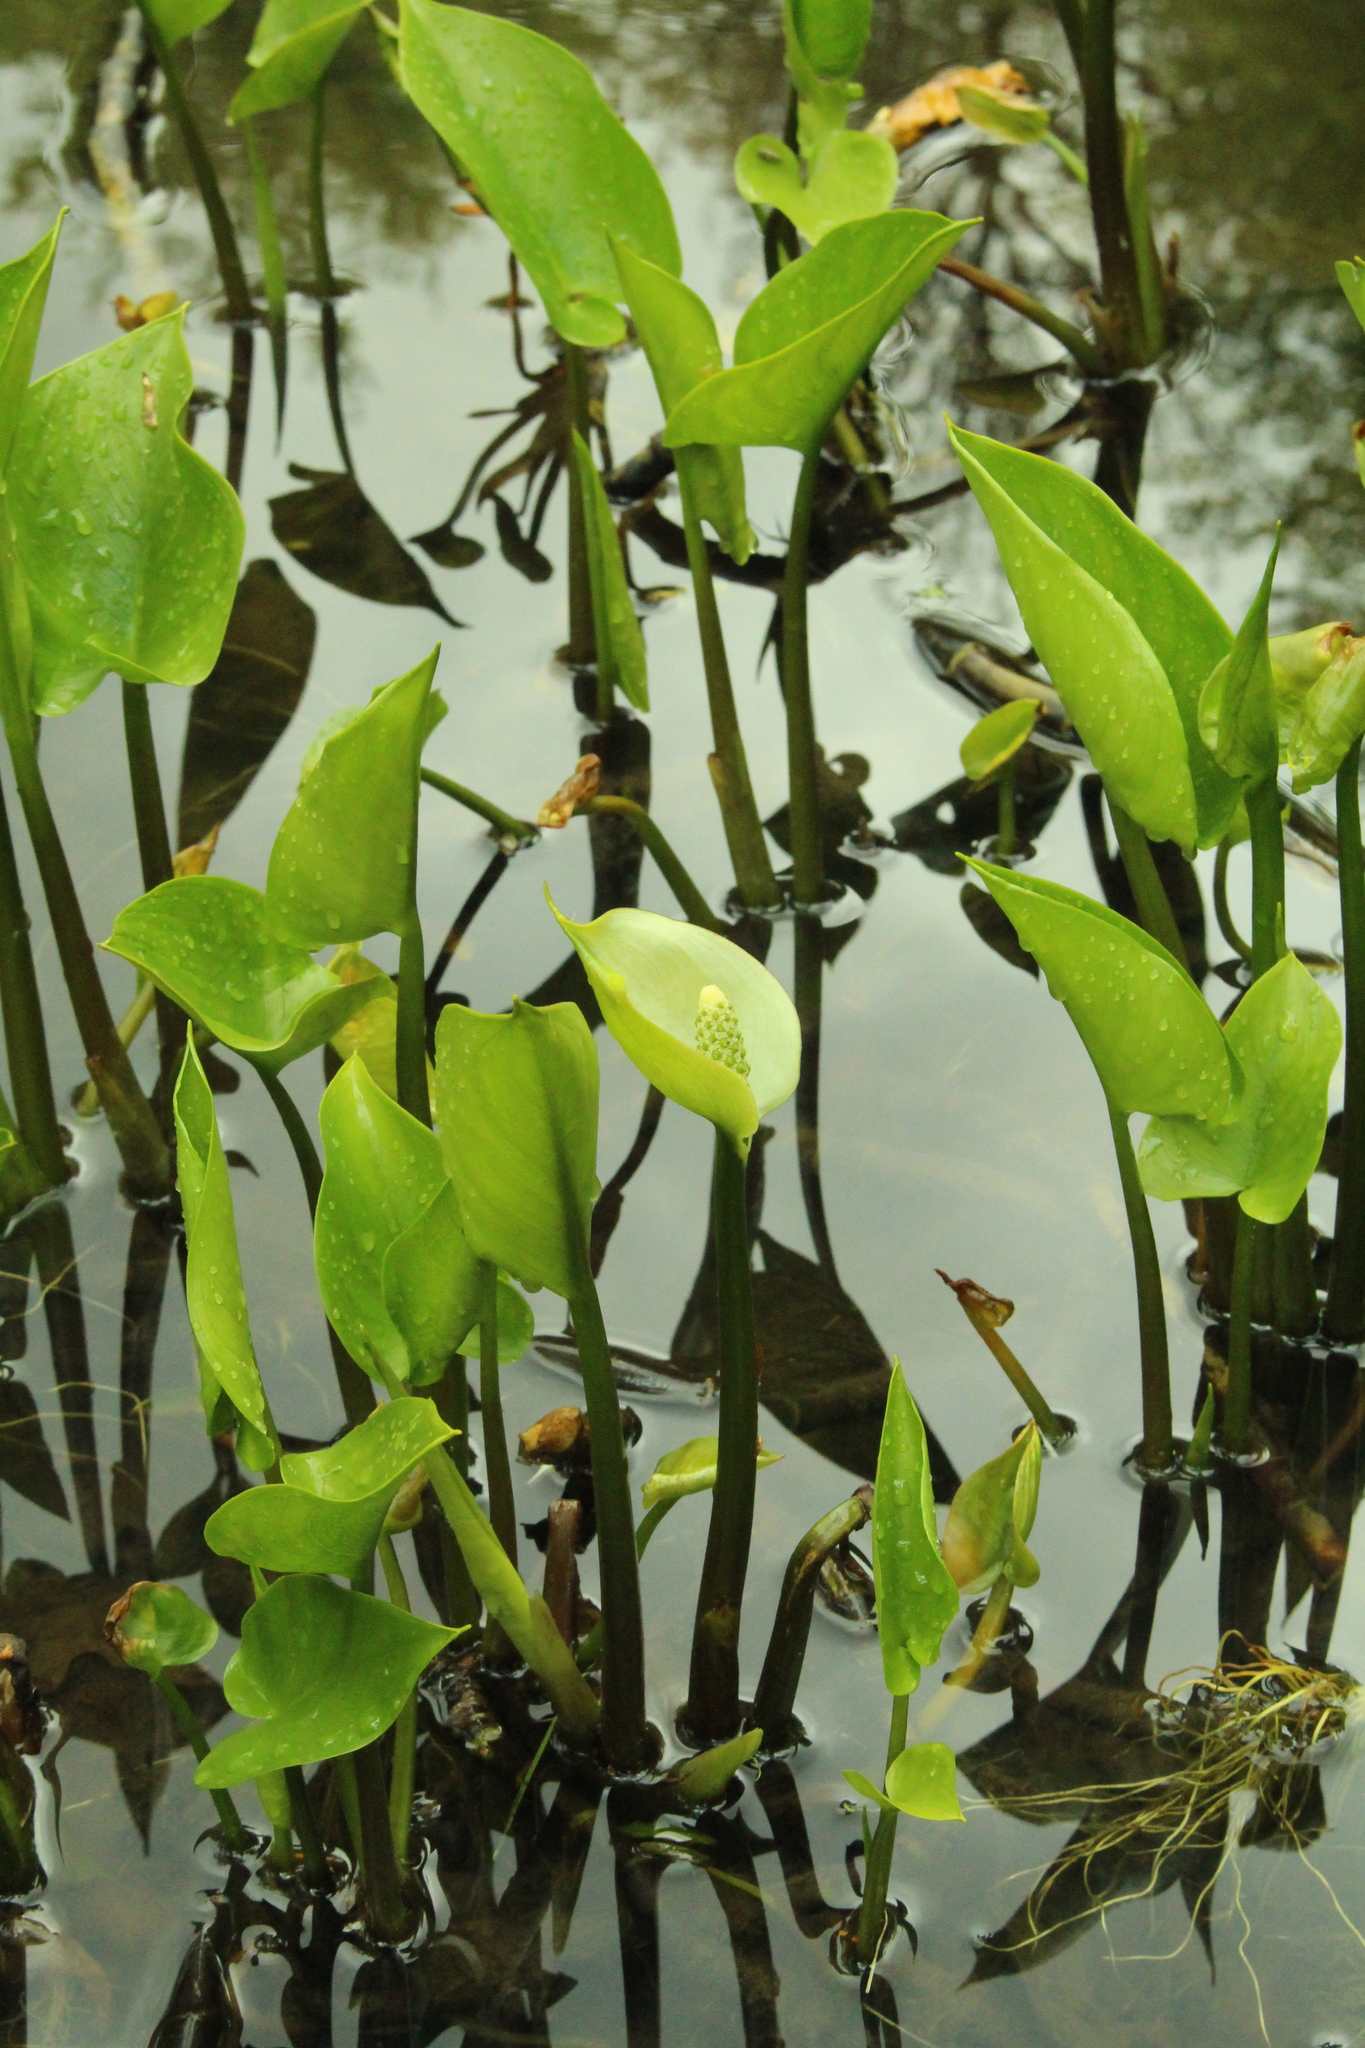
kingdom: Plantae
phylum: Tracheophyta
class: Liliopsida
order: Alismatales
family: Araceae
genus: Calla
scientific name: Calla palustris
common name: Bog arum
